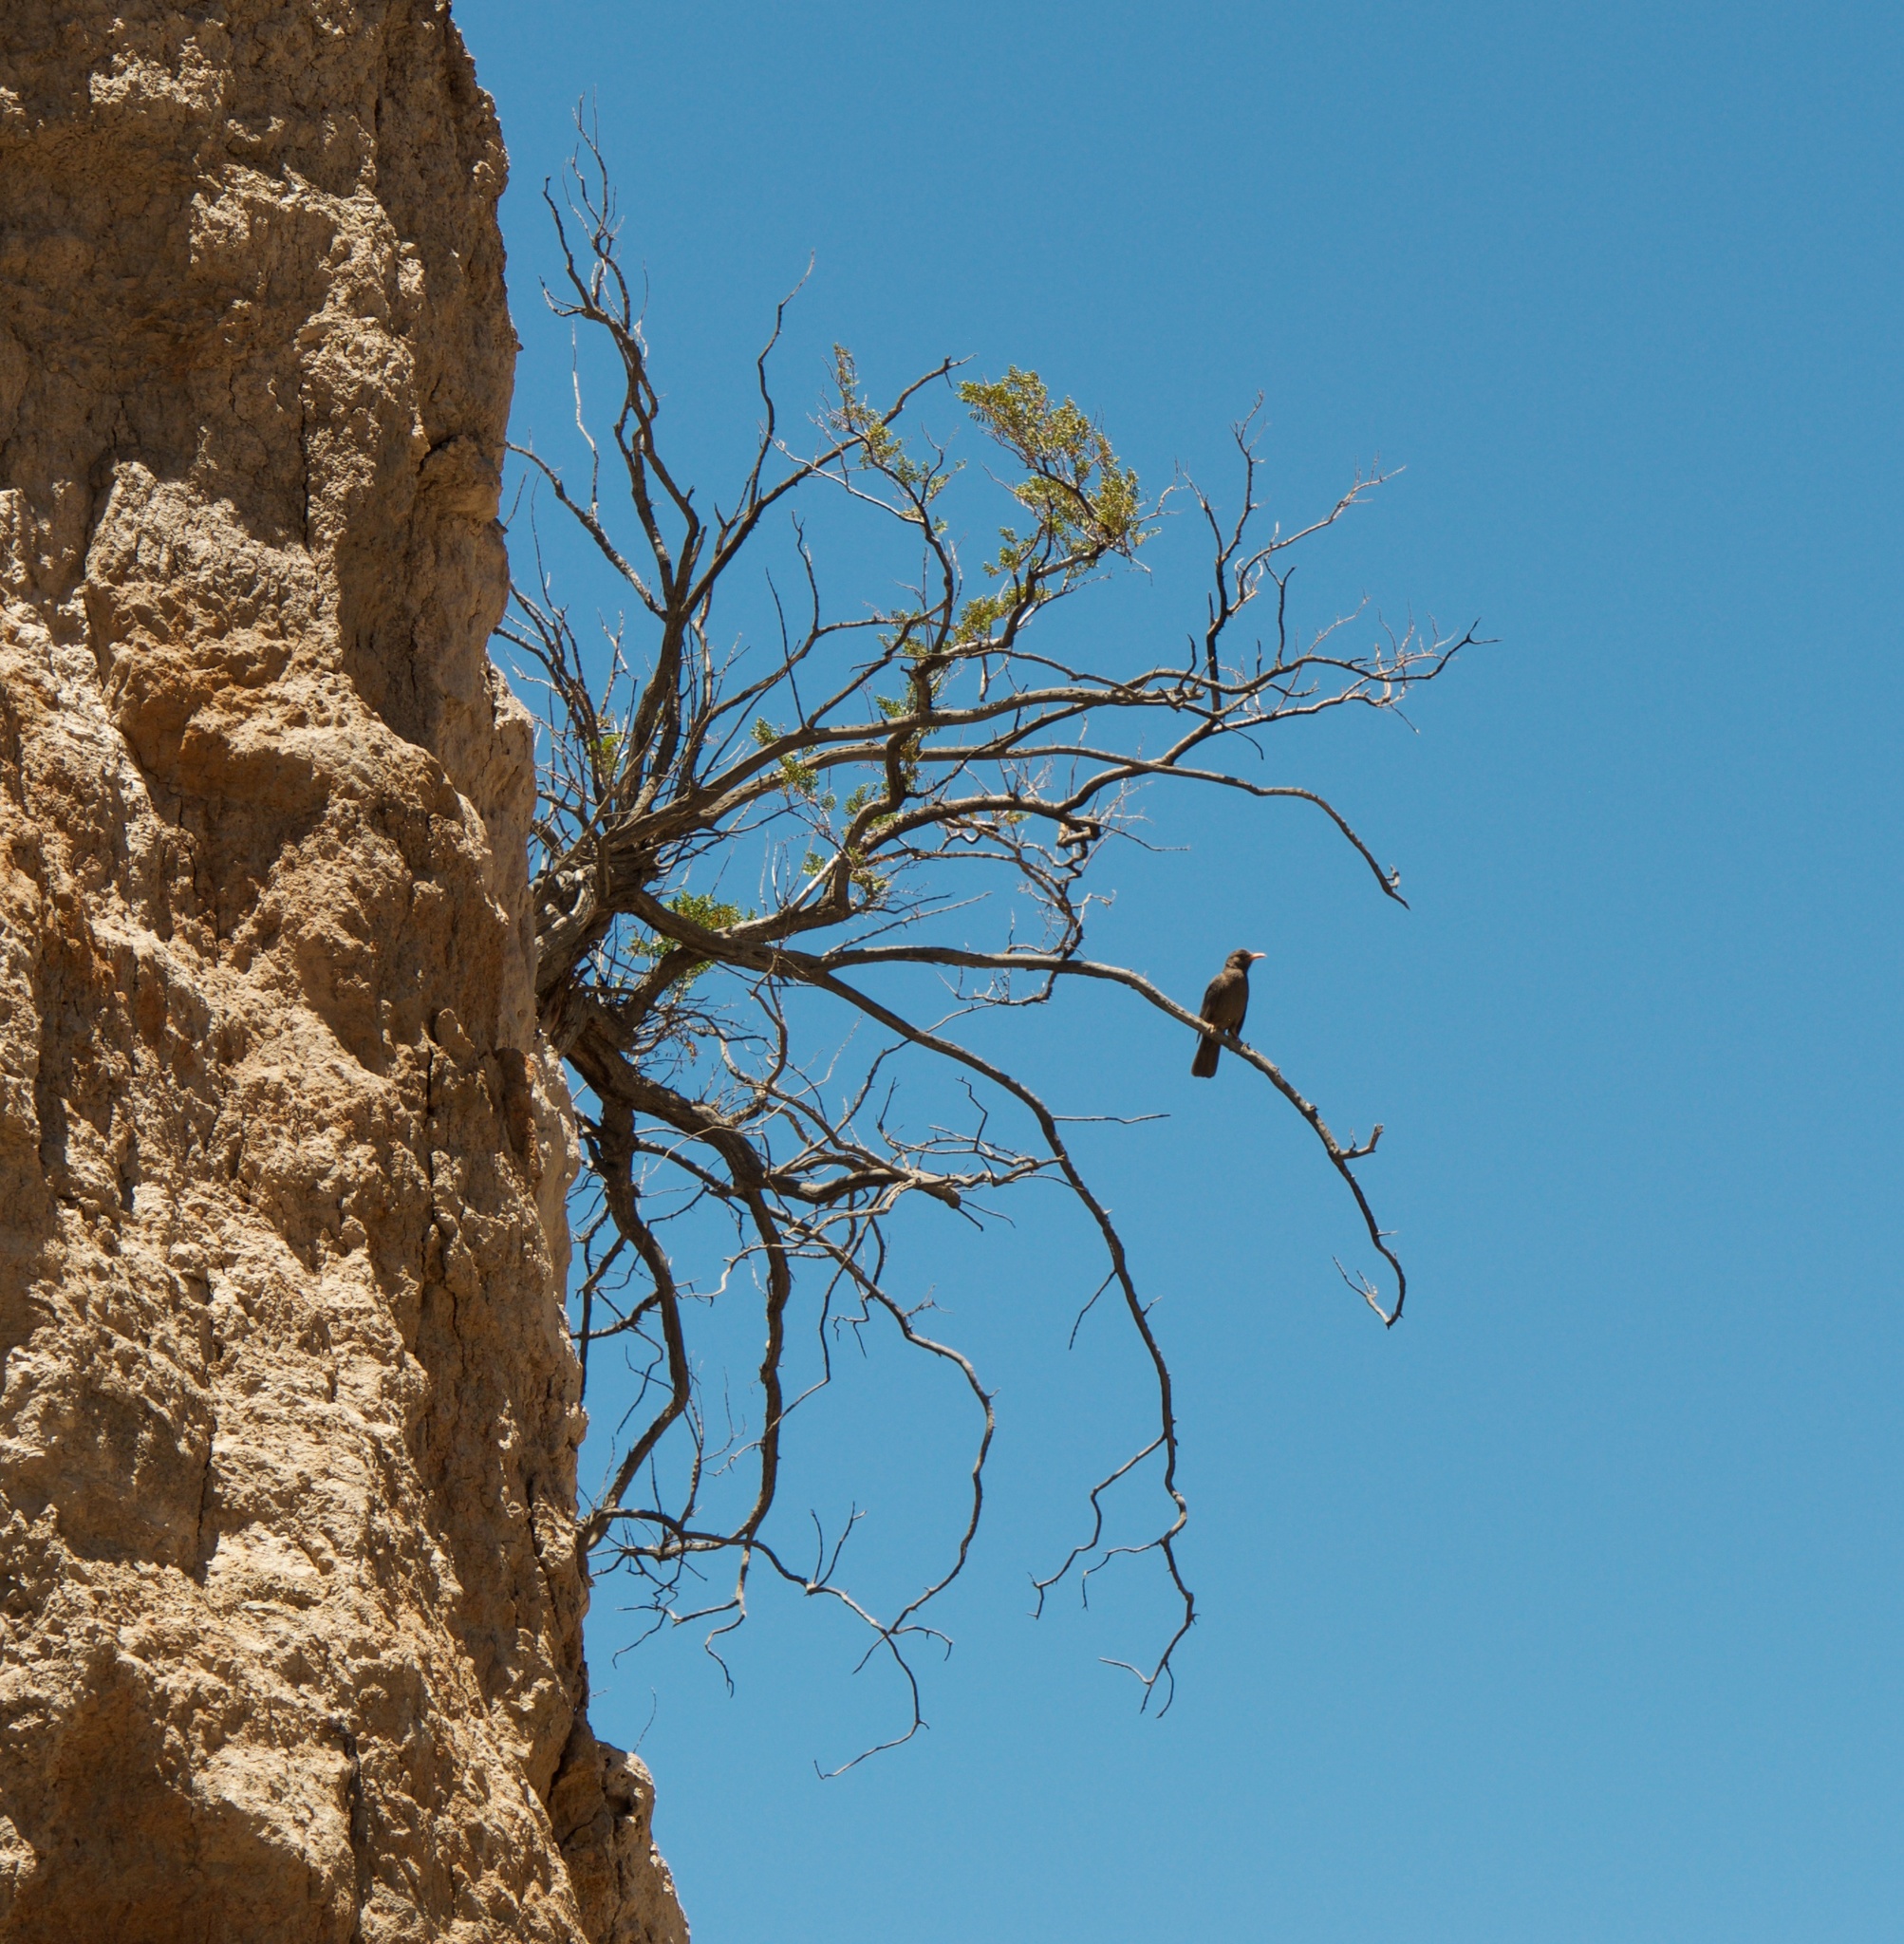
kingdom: Animalia
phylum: Chordata
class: Aves
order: Passeriformes
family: Turdidae
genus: Turdus
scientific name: Turdus chiguanco
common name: Chiguanco thrush
